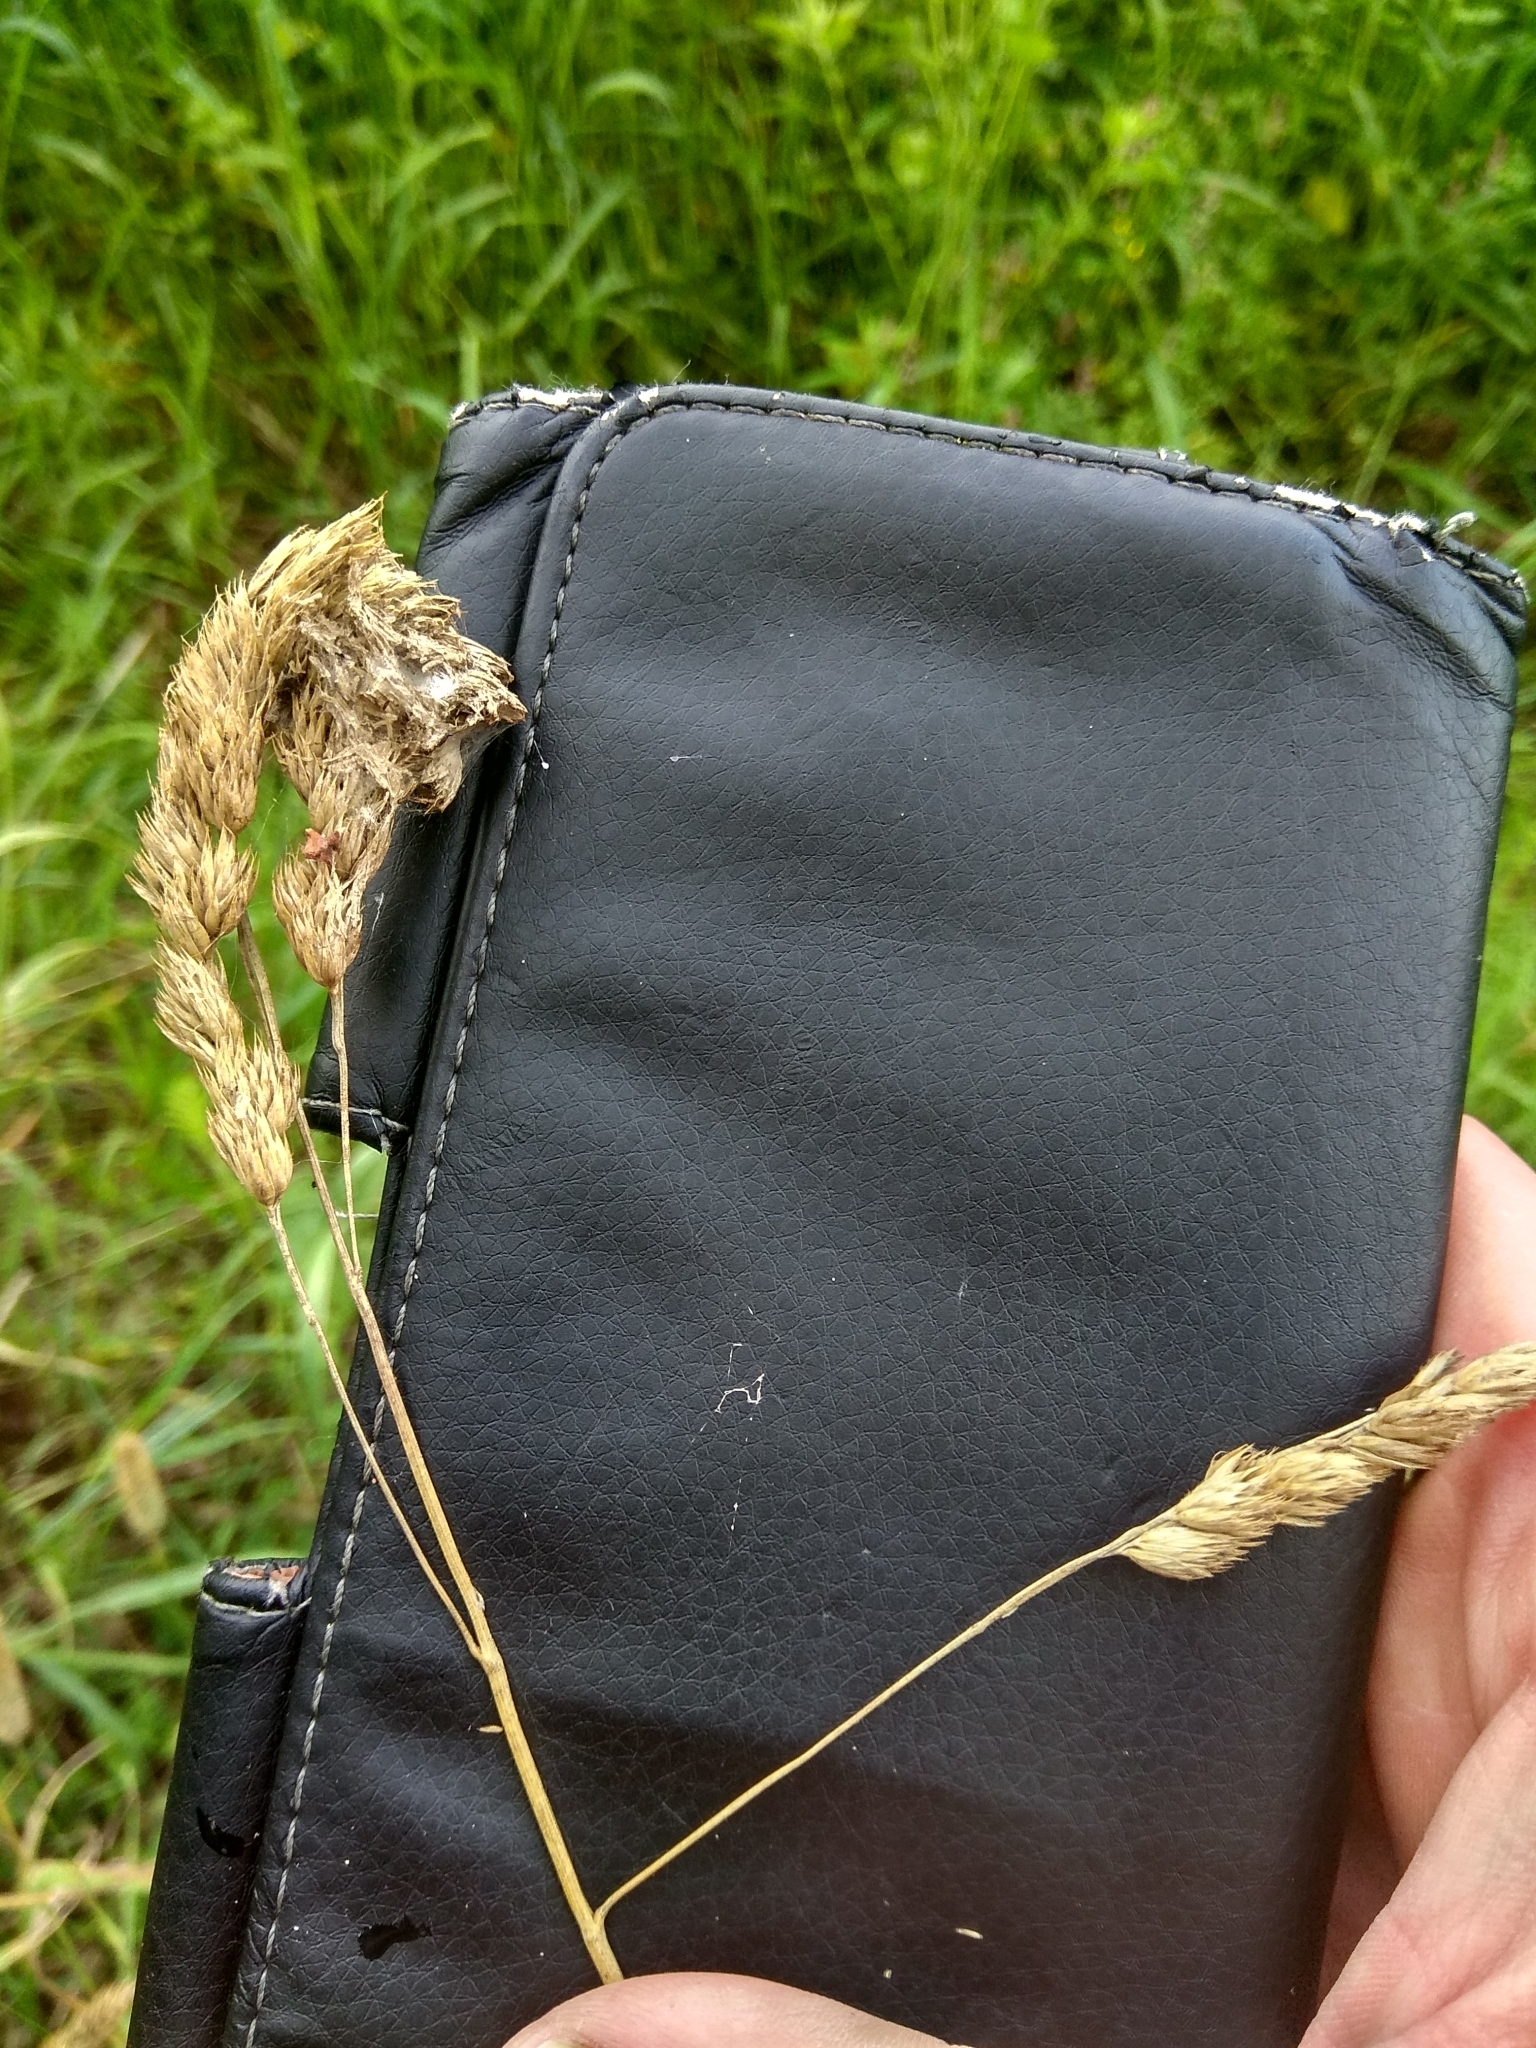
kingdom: Plantae
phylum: Tracheophyta
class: Liliopsida
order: Poales
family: Poaceae
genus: Dactylis
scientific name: Dactylis glomerata
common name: Orchardgrass
